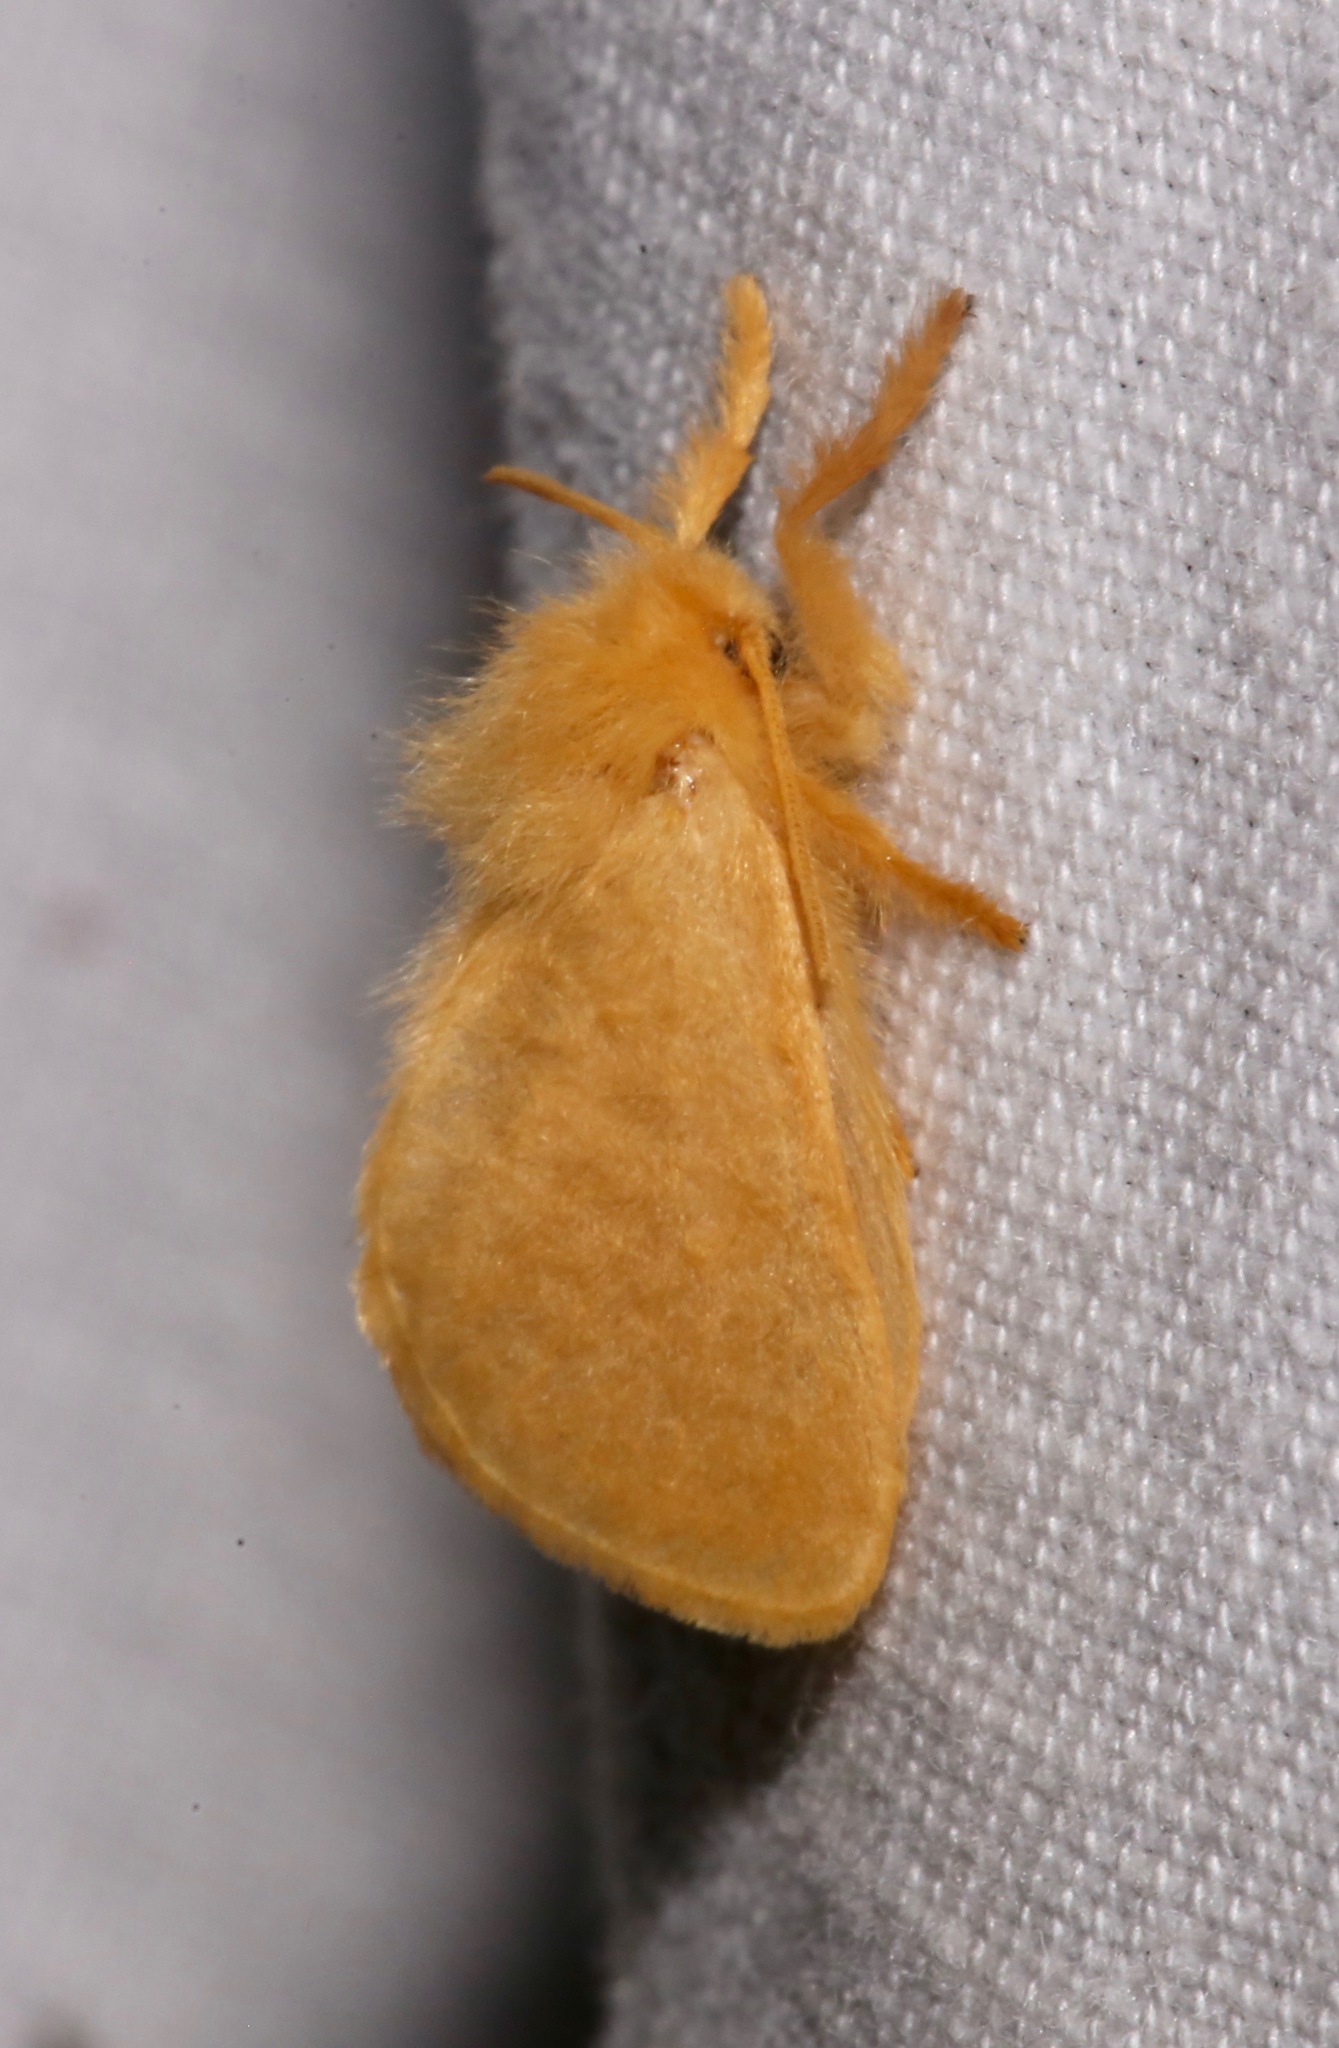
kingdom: Animalia
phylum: Arthropoda
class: Insecta
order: Lepidoptera
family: Megalopygidae
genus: Megalopyge
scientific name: Megalopyge pixidifera
